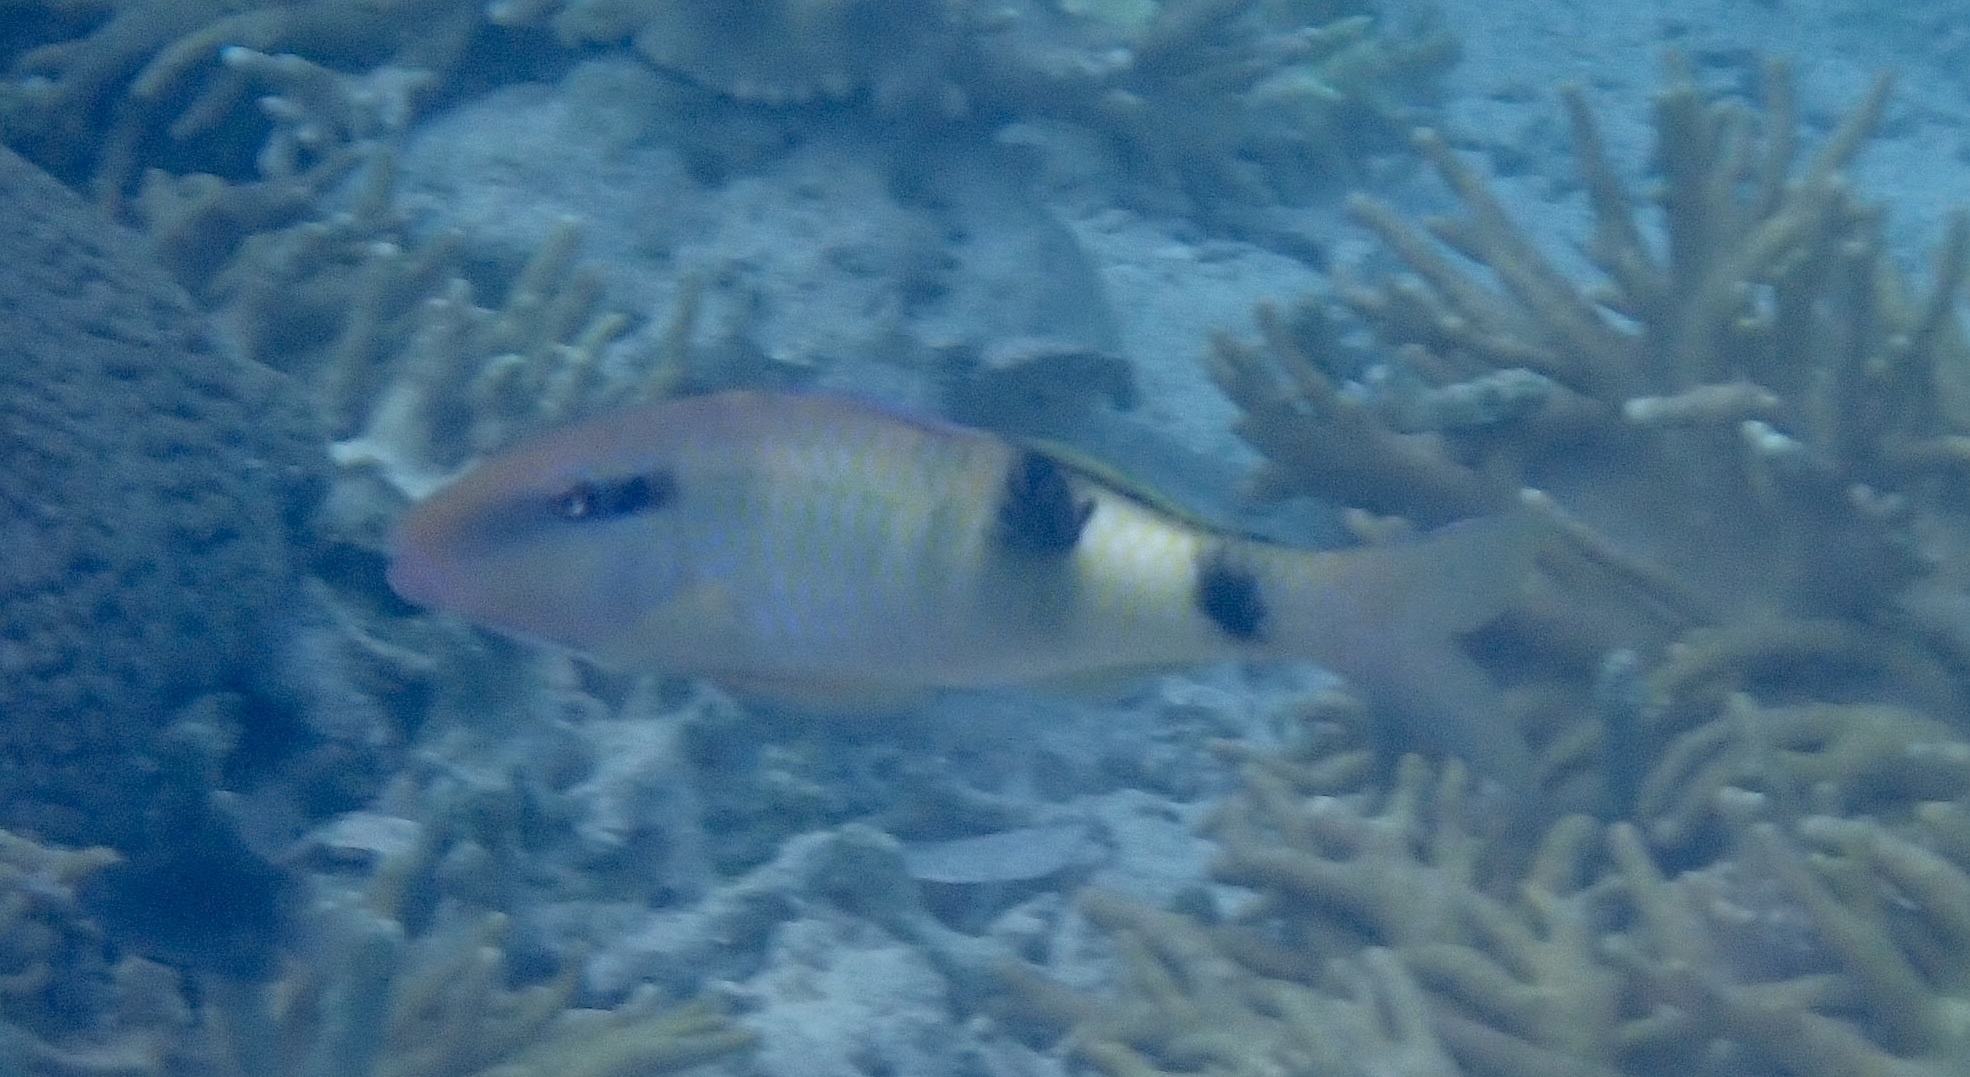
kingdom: Animalia
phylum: Chordata
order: Perciformes
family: Mullidae
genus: Parupeneus
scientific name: Parupeneus multifasciatus
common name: Manybar goatfish
